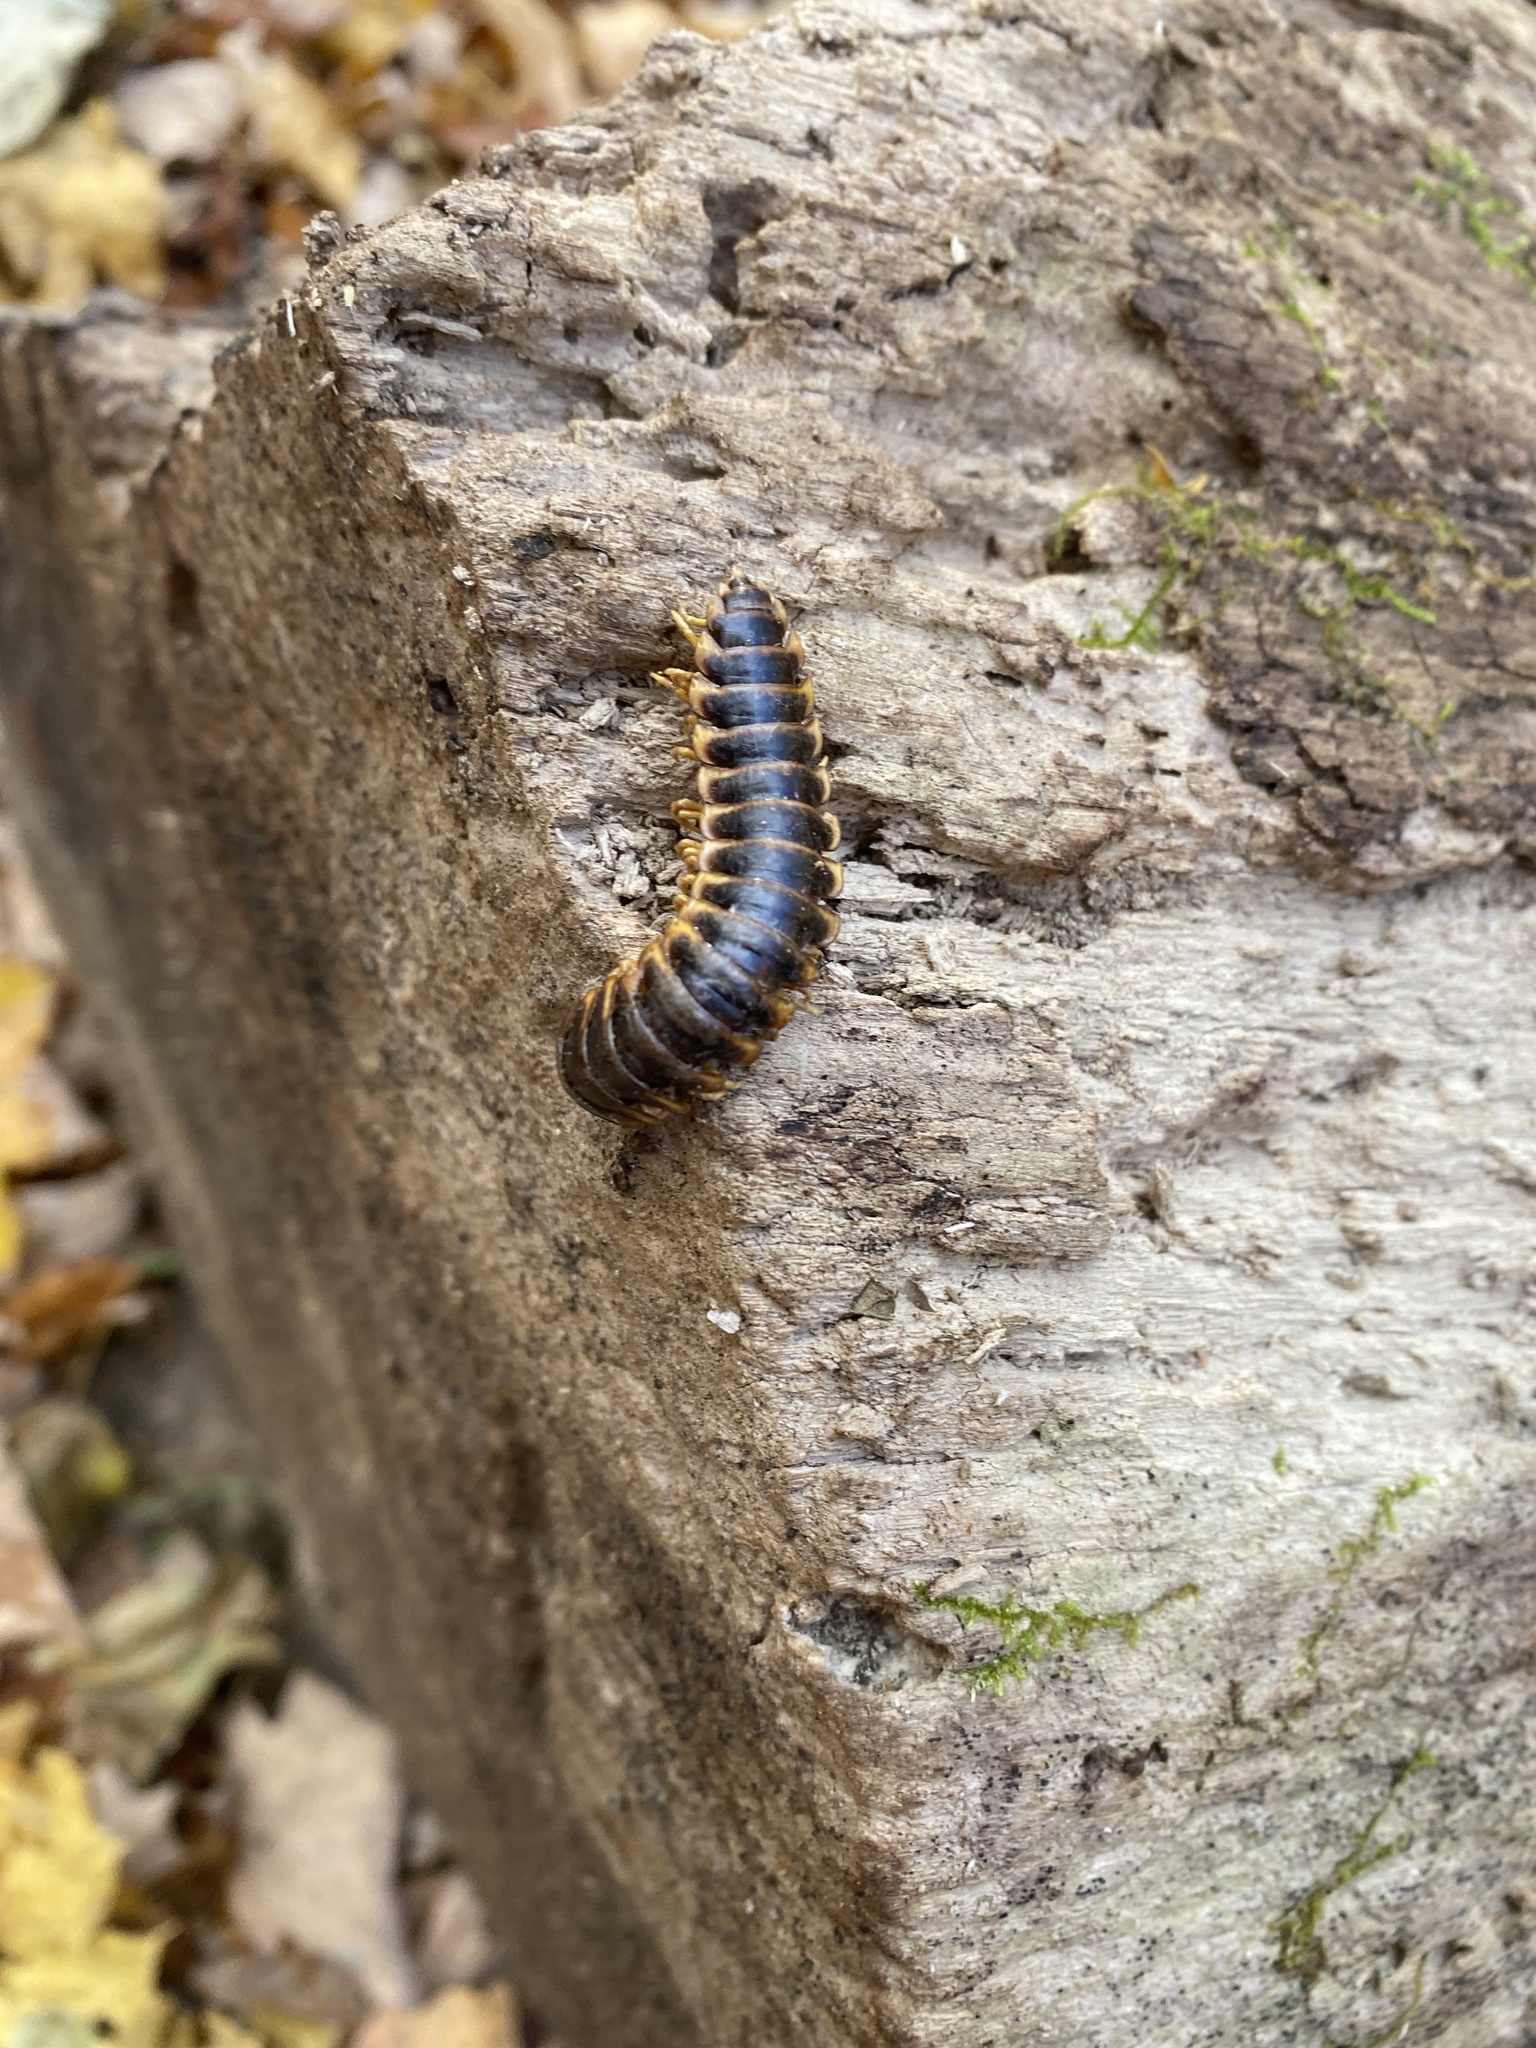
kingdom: Animalia
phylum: Arthropoda
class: Diplopoda
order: Polydesmida
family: Xystodesmidae
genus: Apheloria
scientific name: Apheloria virginiensis
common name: Black-and-gold flat millipede
